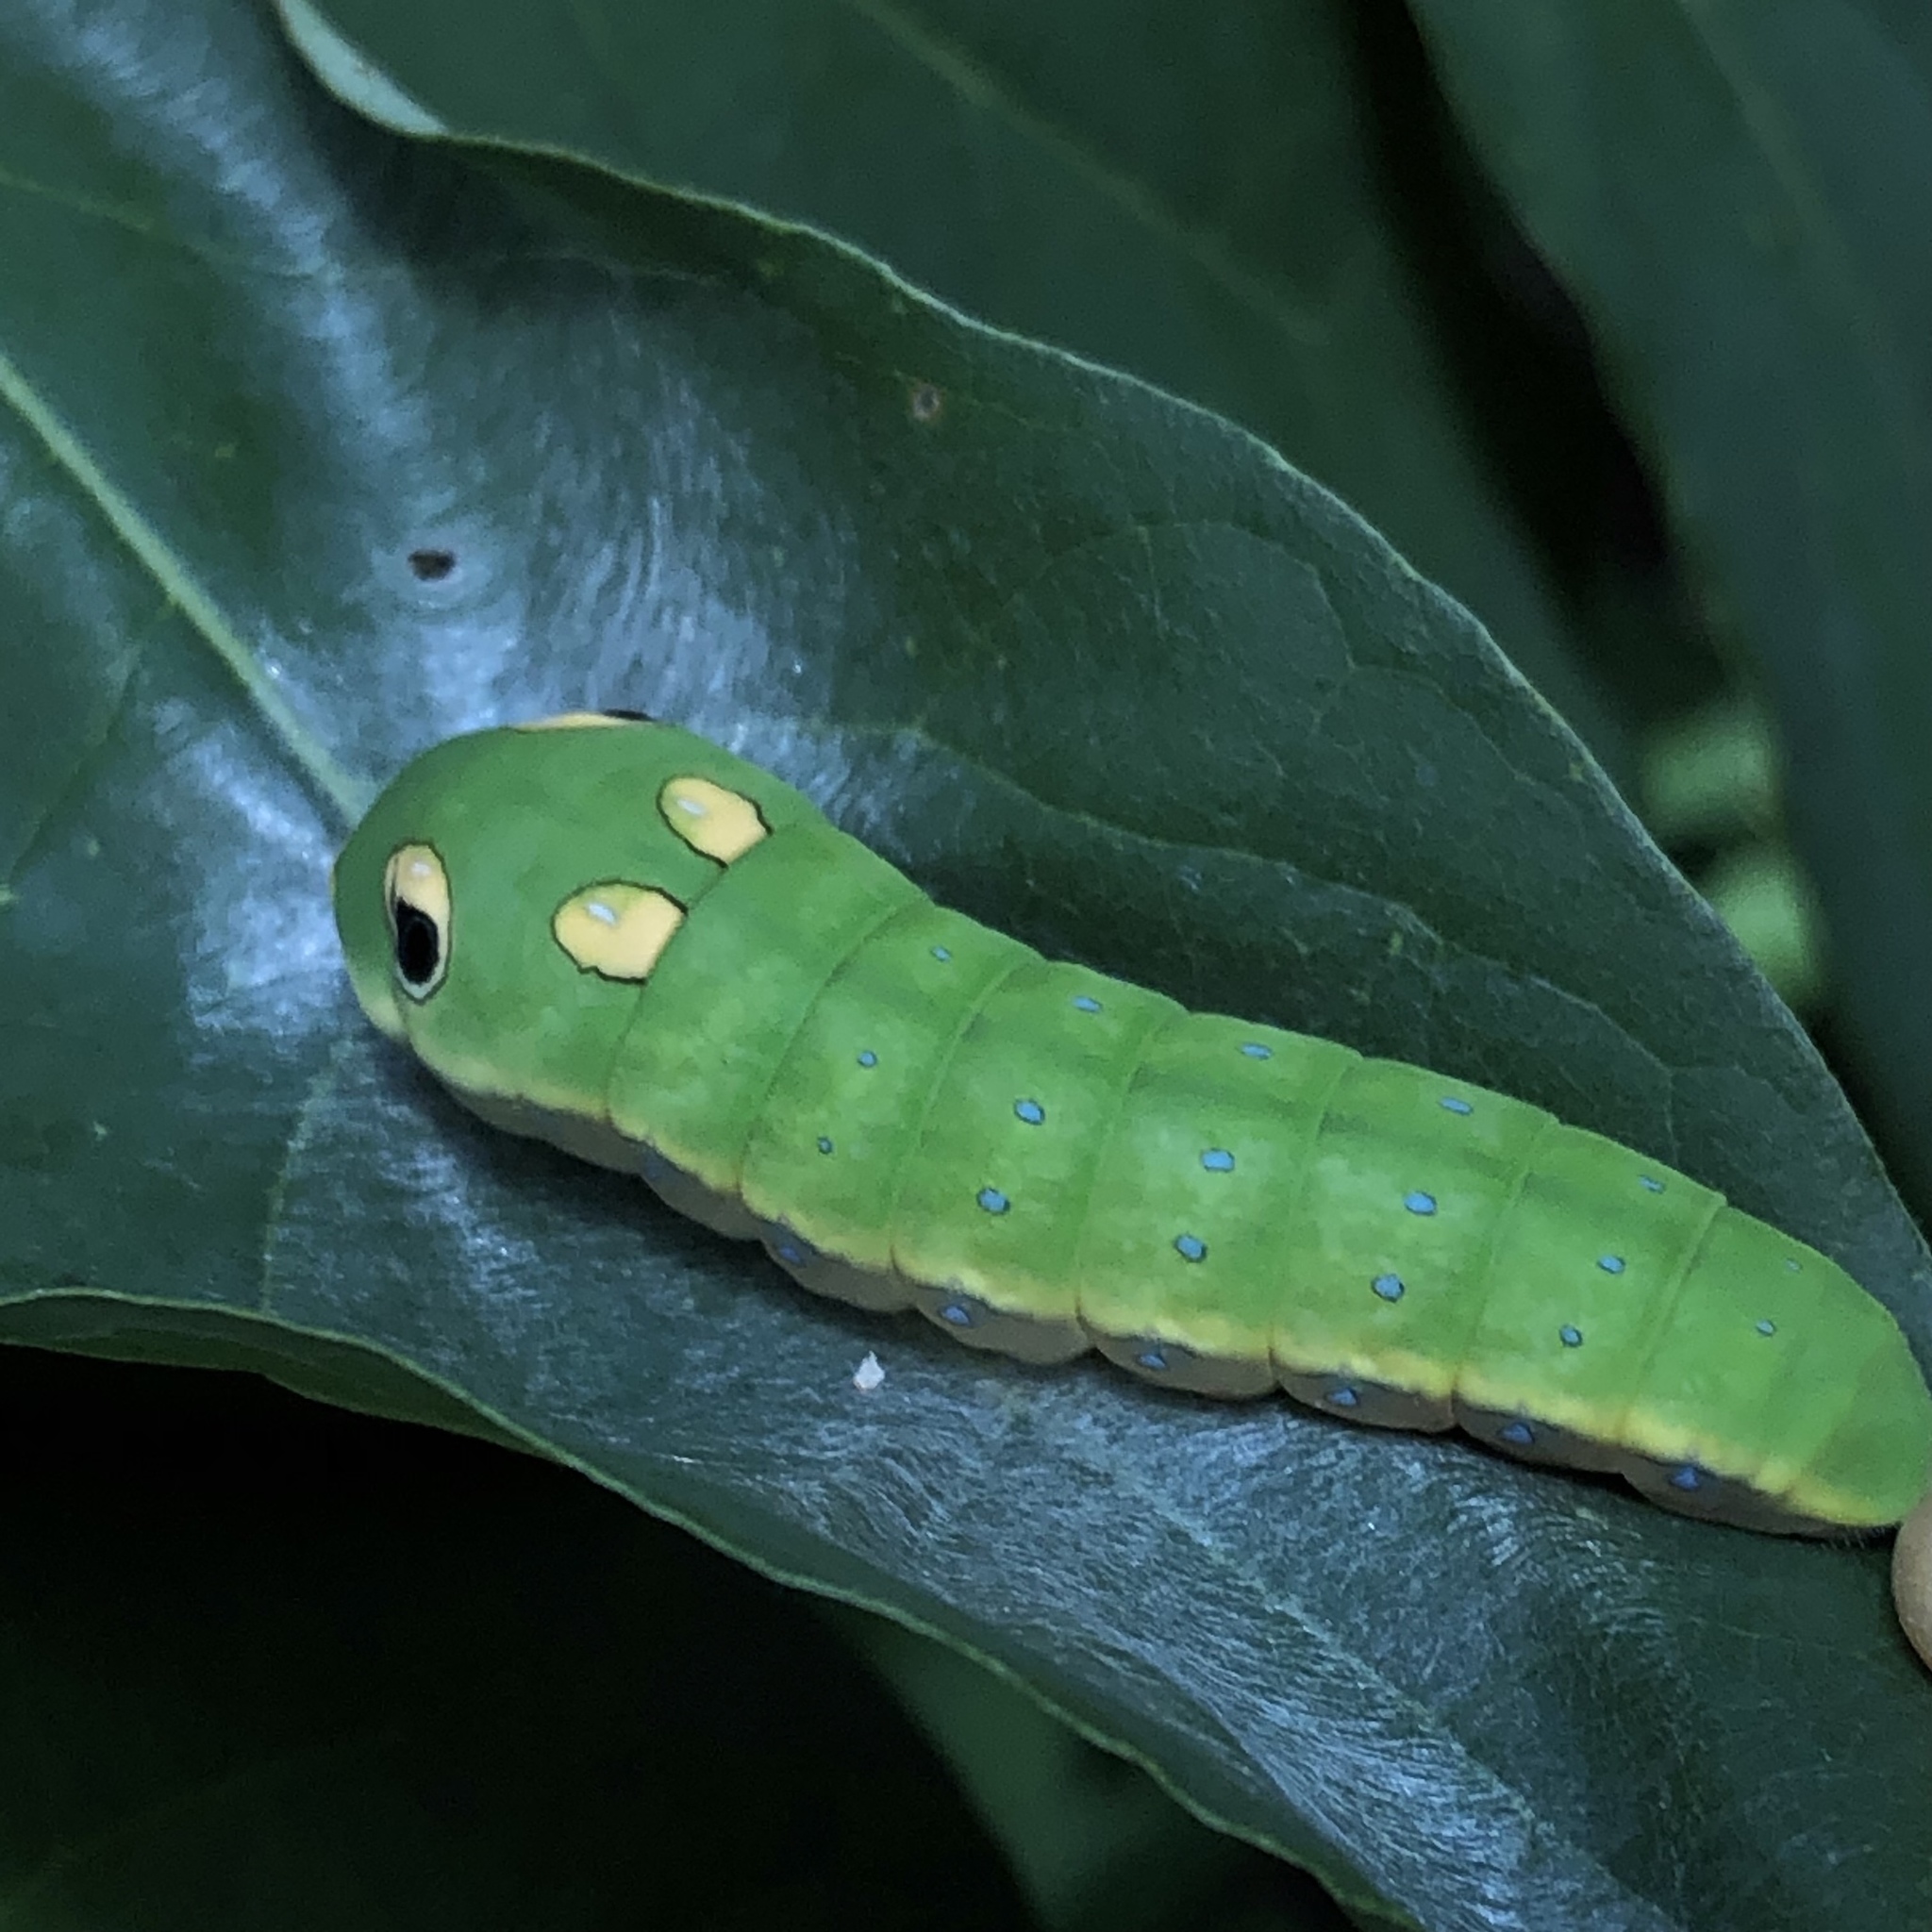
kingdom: Animalia
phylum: Arthropoda
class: Insecta
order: Lepidoptera
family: Papilionidae
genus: Papilio
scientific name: Papilio troilus
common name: Spicebush swallowtail
